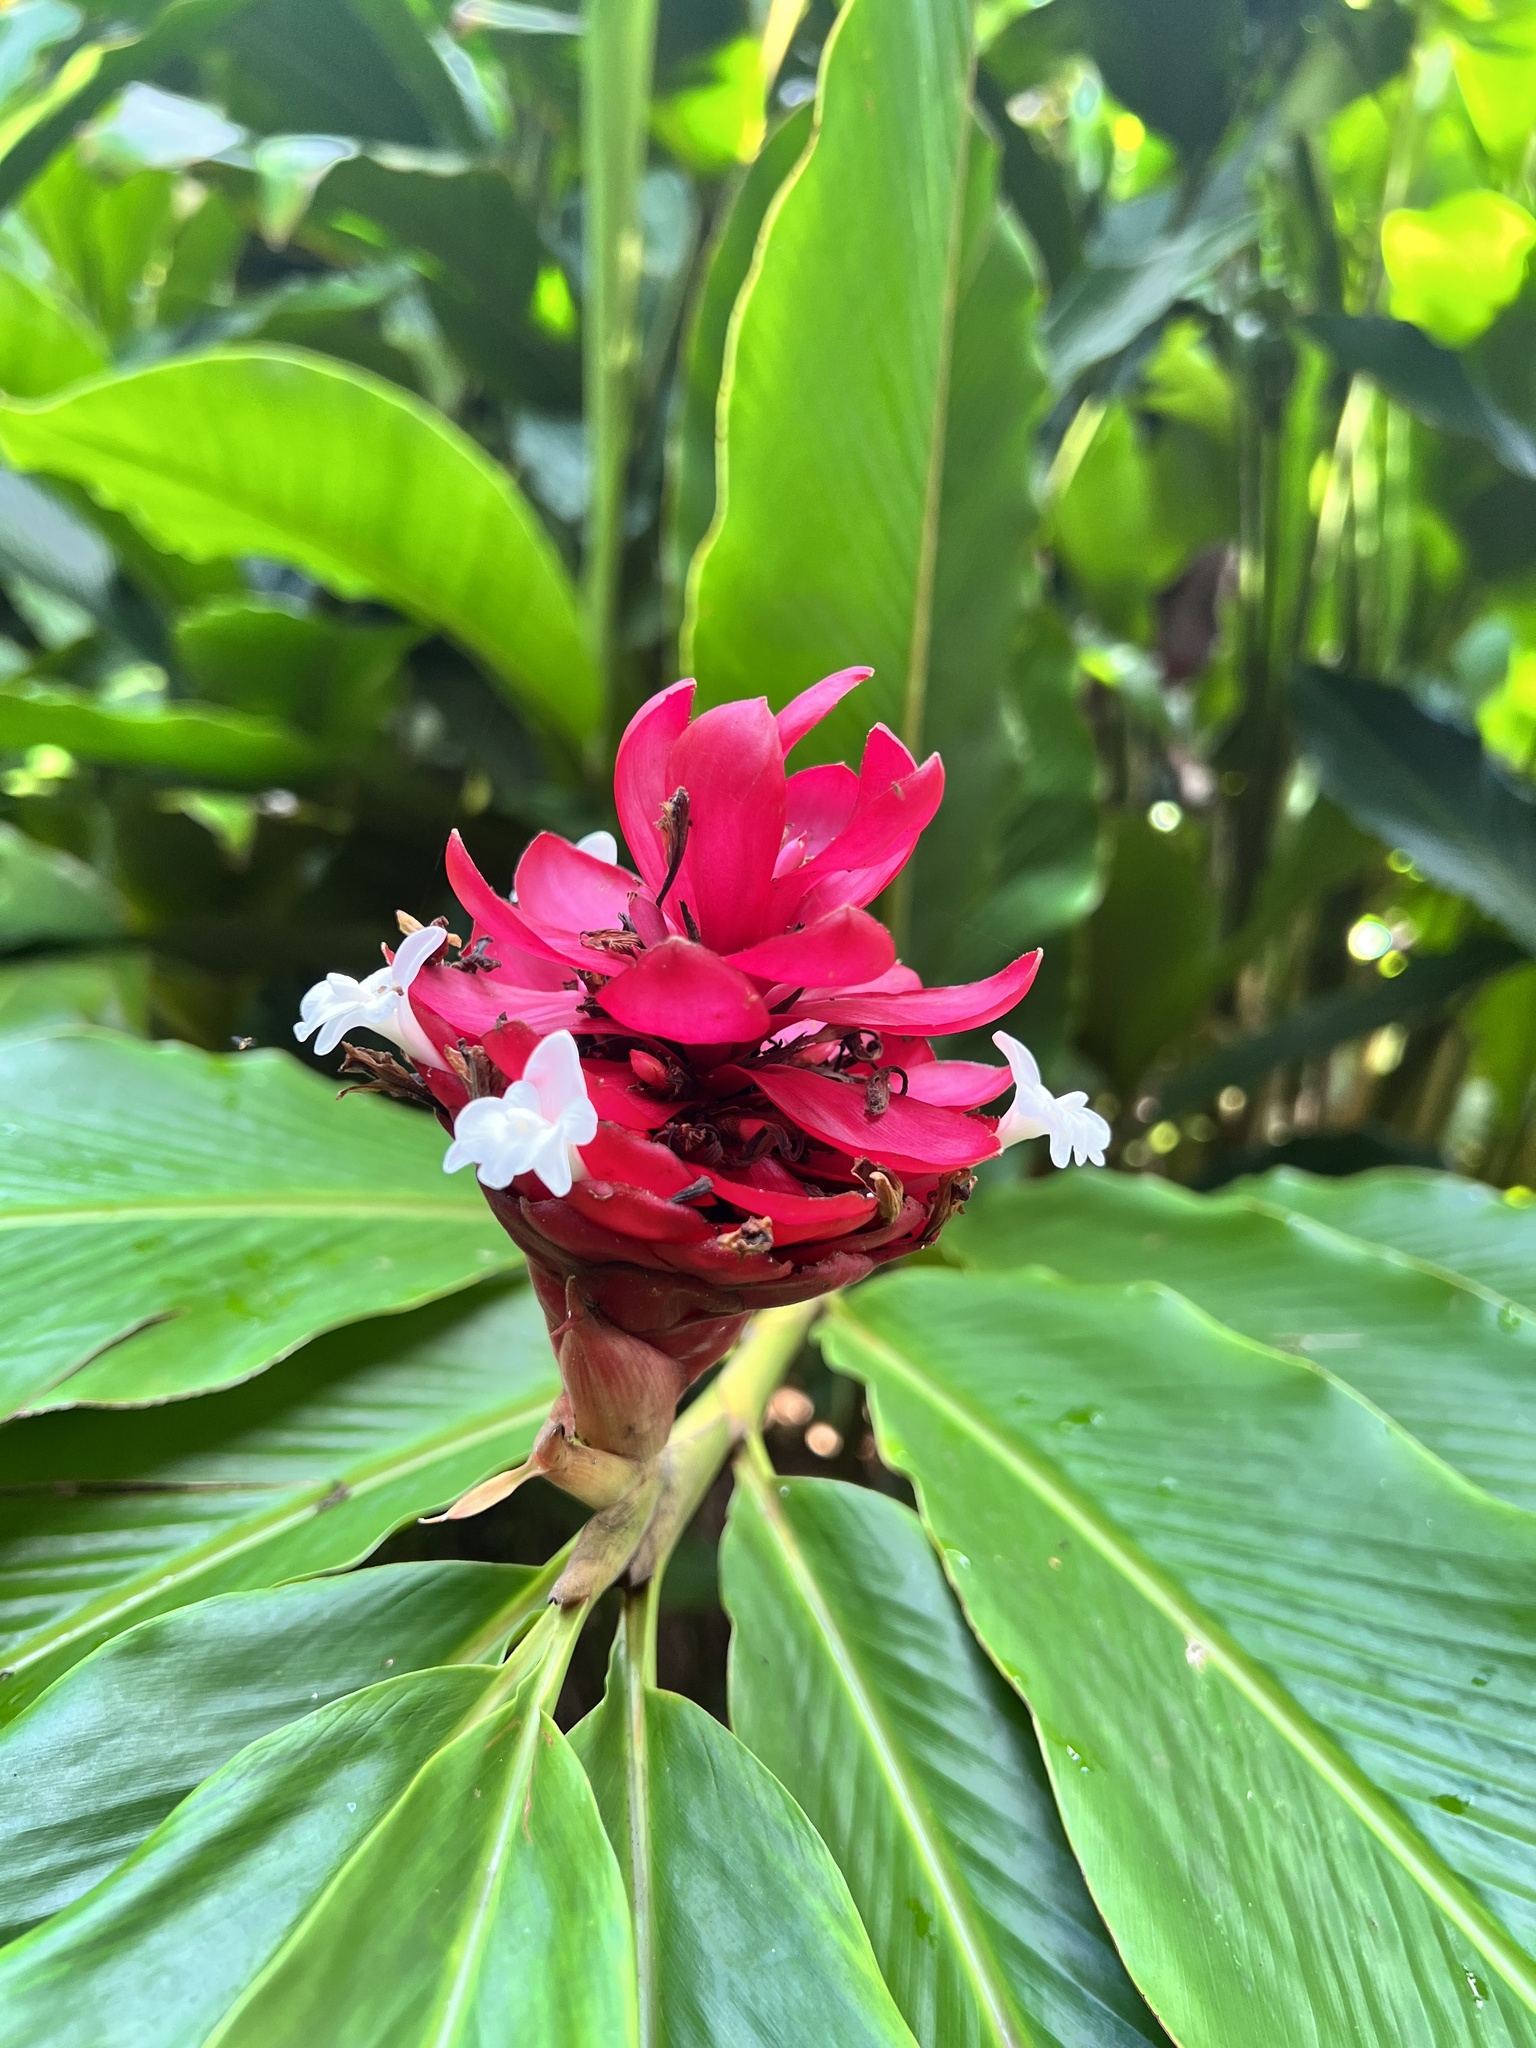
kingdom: Plantae
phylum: Tracheophyta
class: Liliopsida
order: Zingiberales
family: Zingiberaceae
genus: Alpinia
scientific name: Alpinia purpurata
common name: Red ginger
